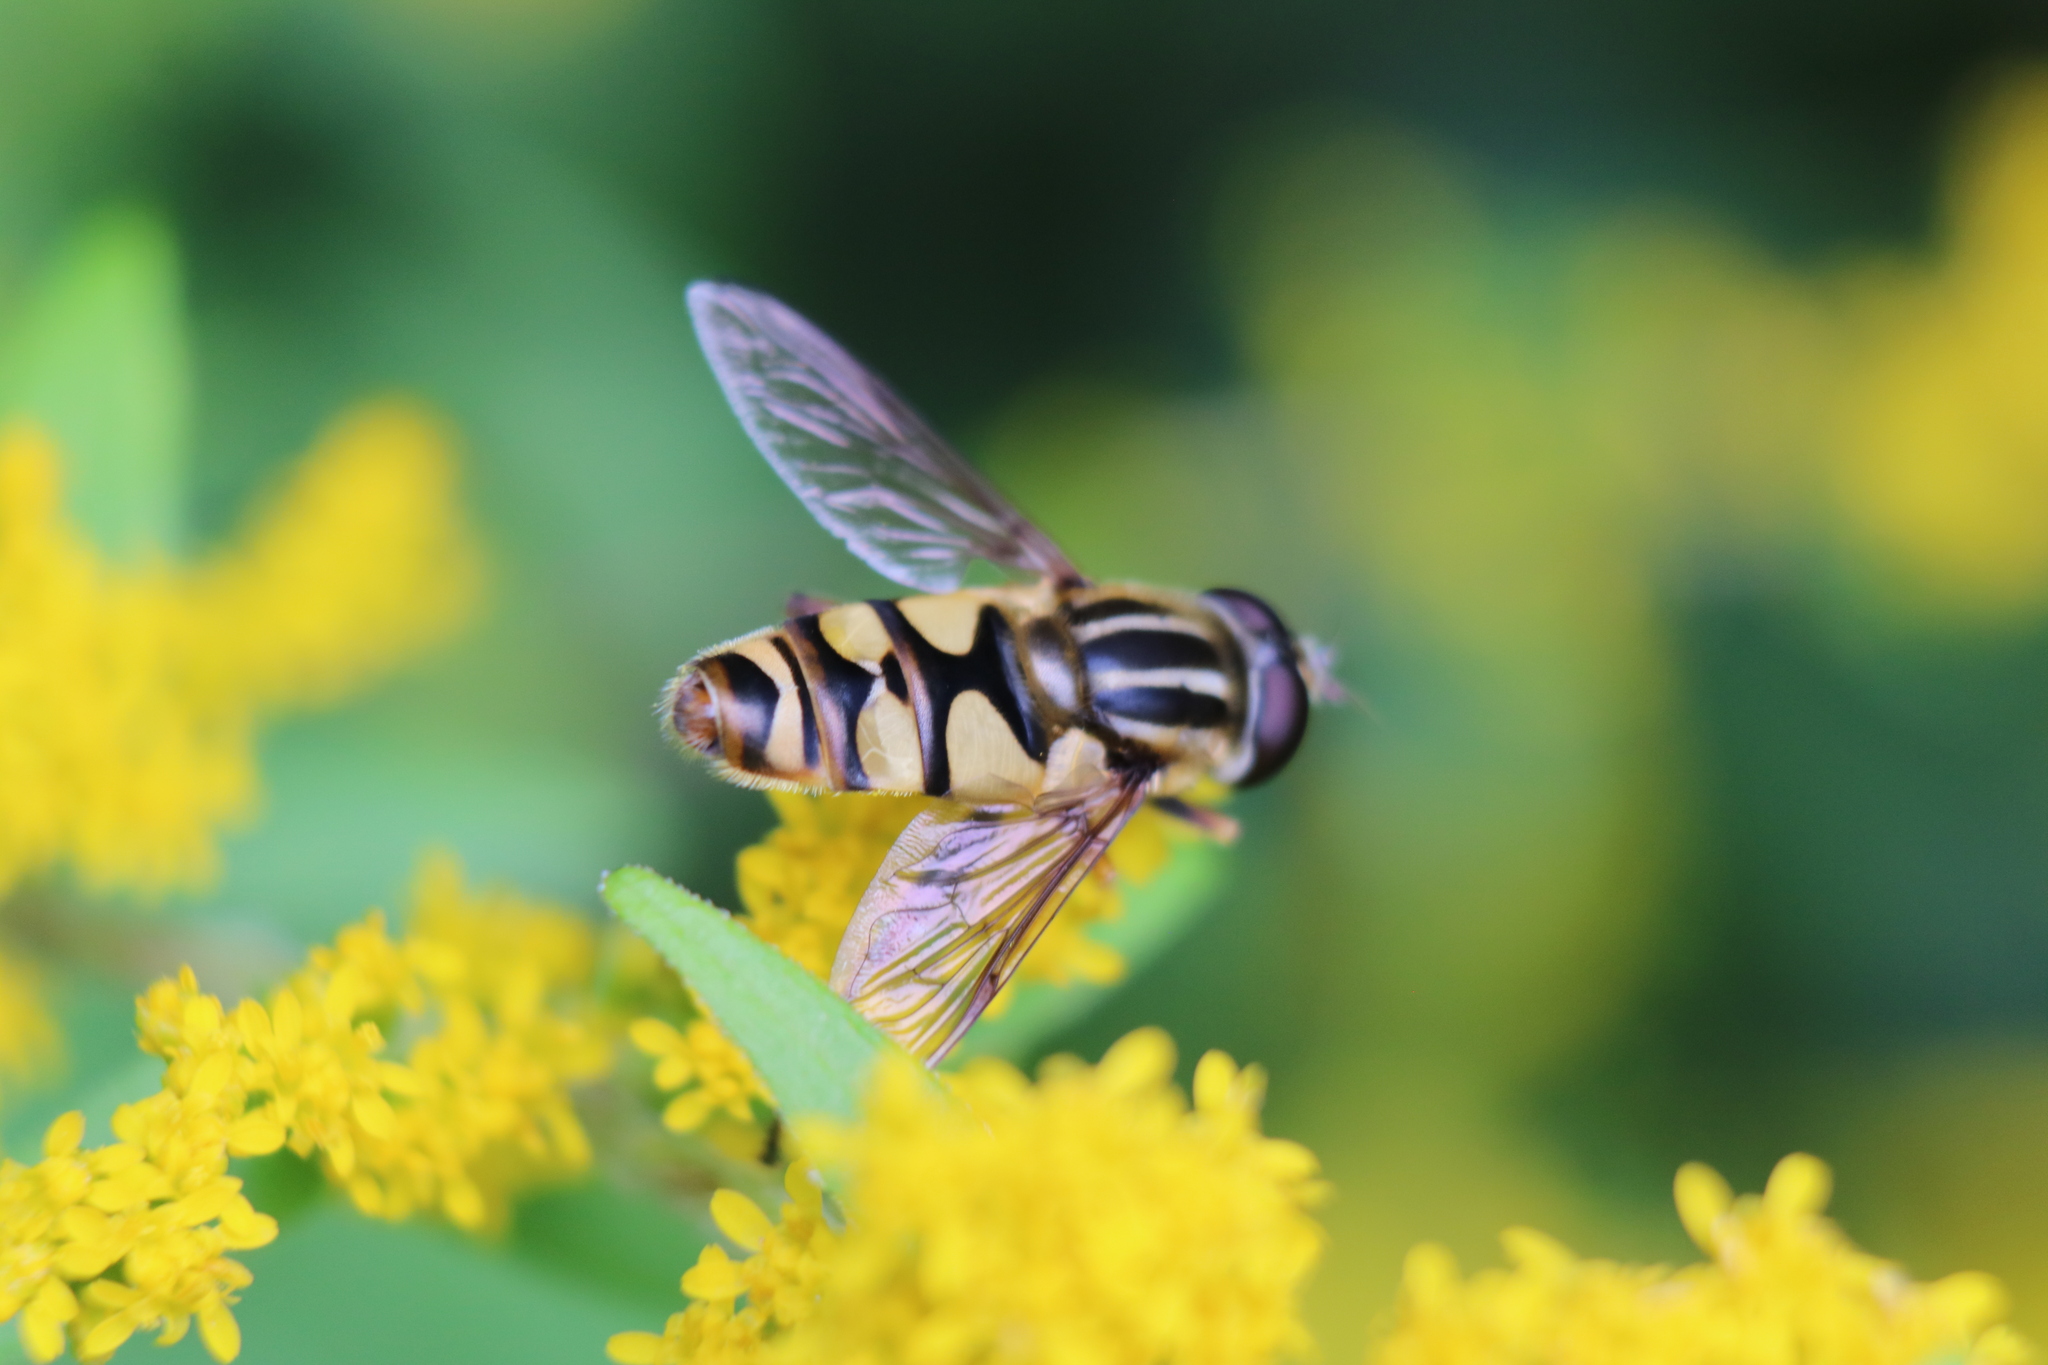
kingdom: Animalia
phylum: Arthropoda
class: Insecta
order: Diptera
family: Syrphidae
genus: Helophilus
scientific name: Helophilus fasciatus
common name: Narrow-headed marsh fly
